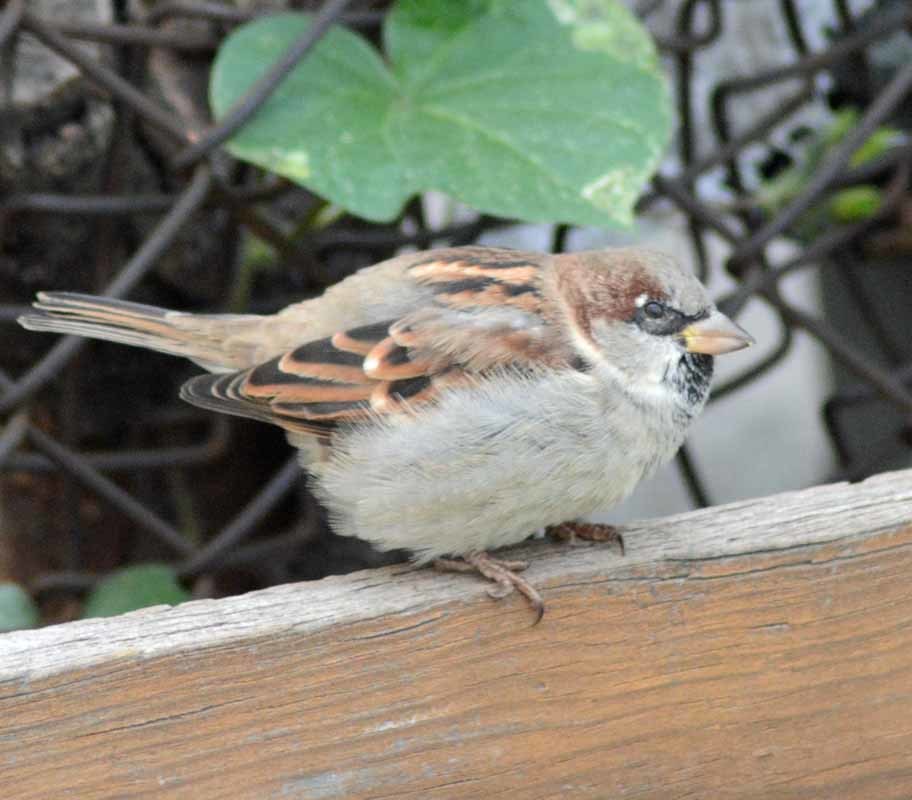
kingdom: Animalia
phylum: Chordata
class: Aves
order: Passeriformes
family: Passeridae
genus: Passer
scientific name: Passer domesticus
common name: House sparrow
